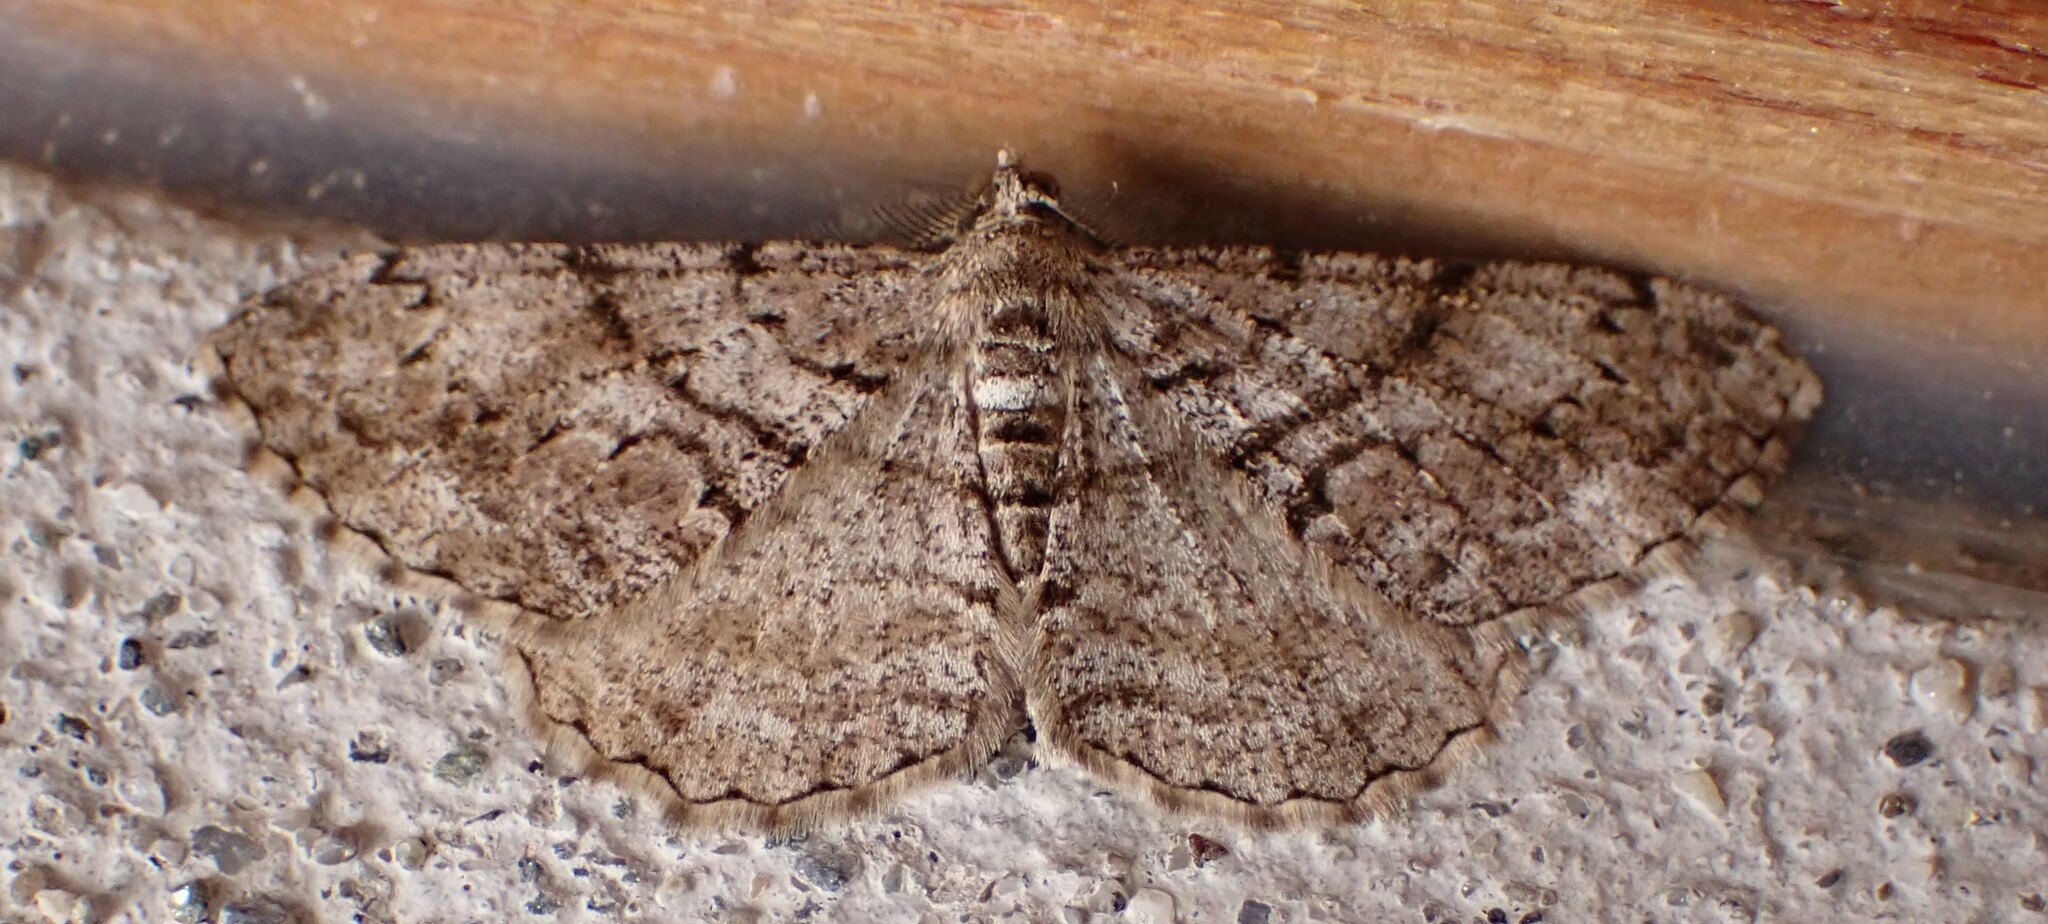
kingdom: Animalia
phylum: Arthropoda
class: Insecta
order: Lepidoptera
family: Geometridae
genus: Peribatodes
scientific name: Peribatodes secundaria
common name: Feathered beauty
